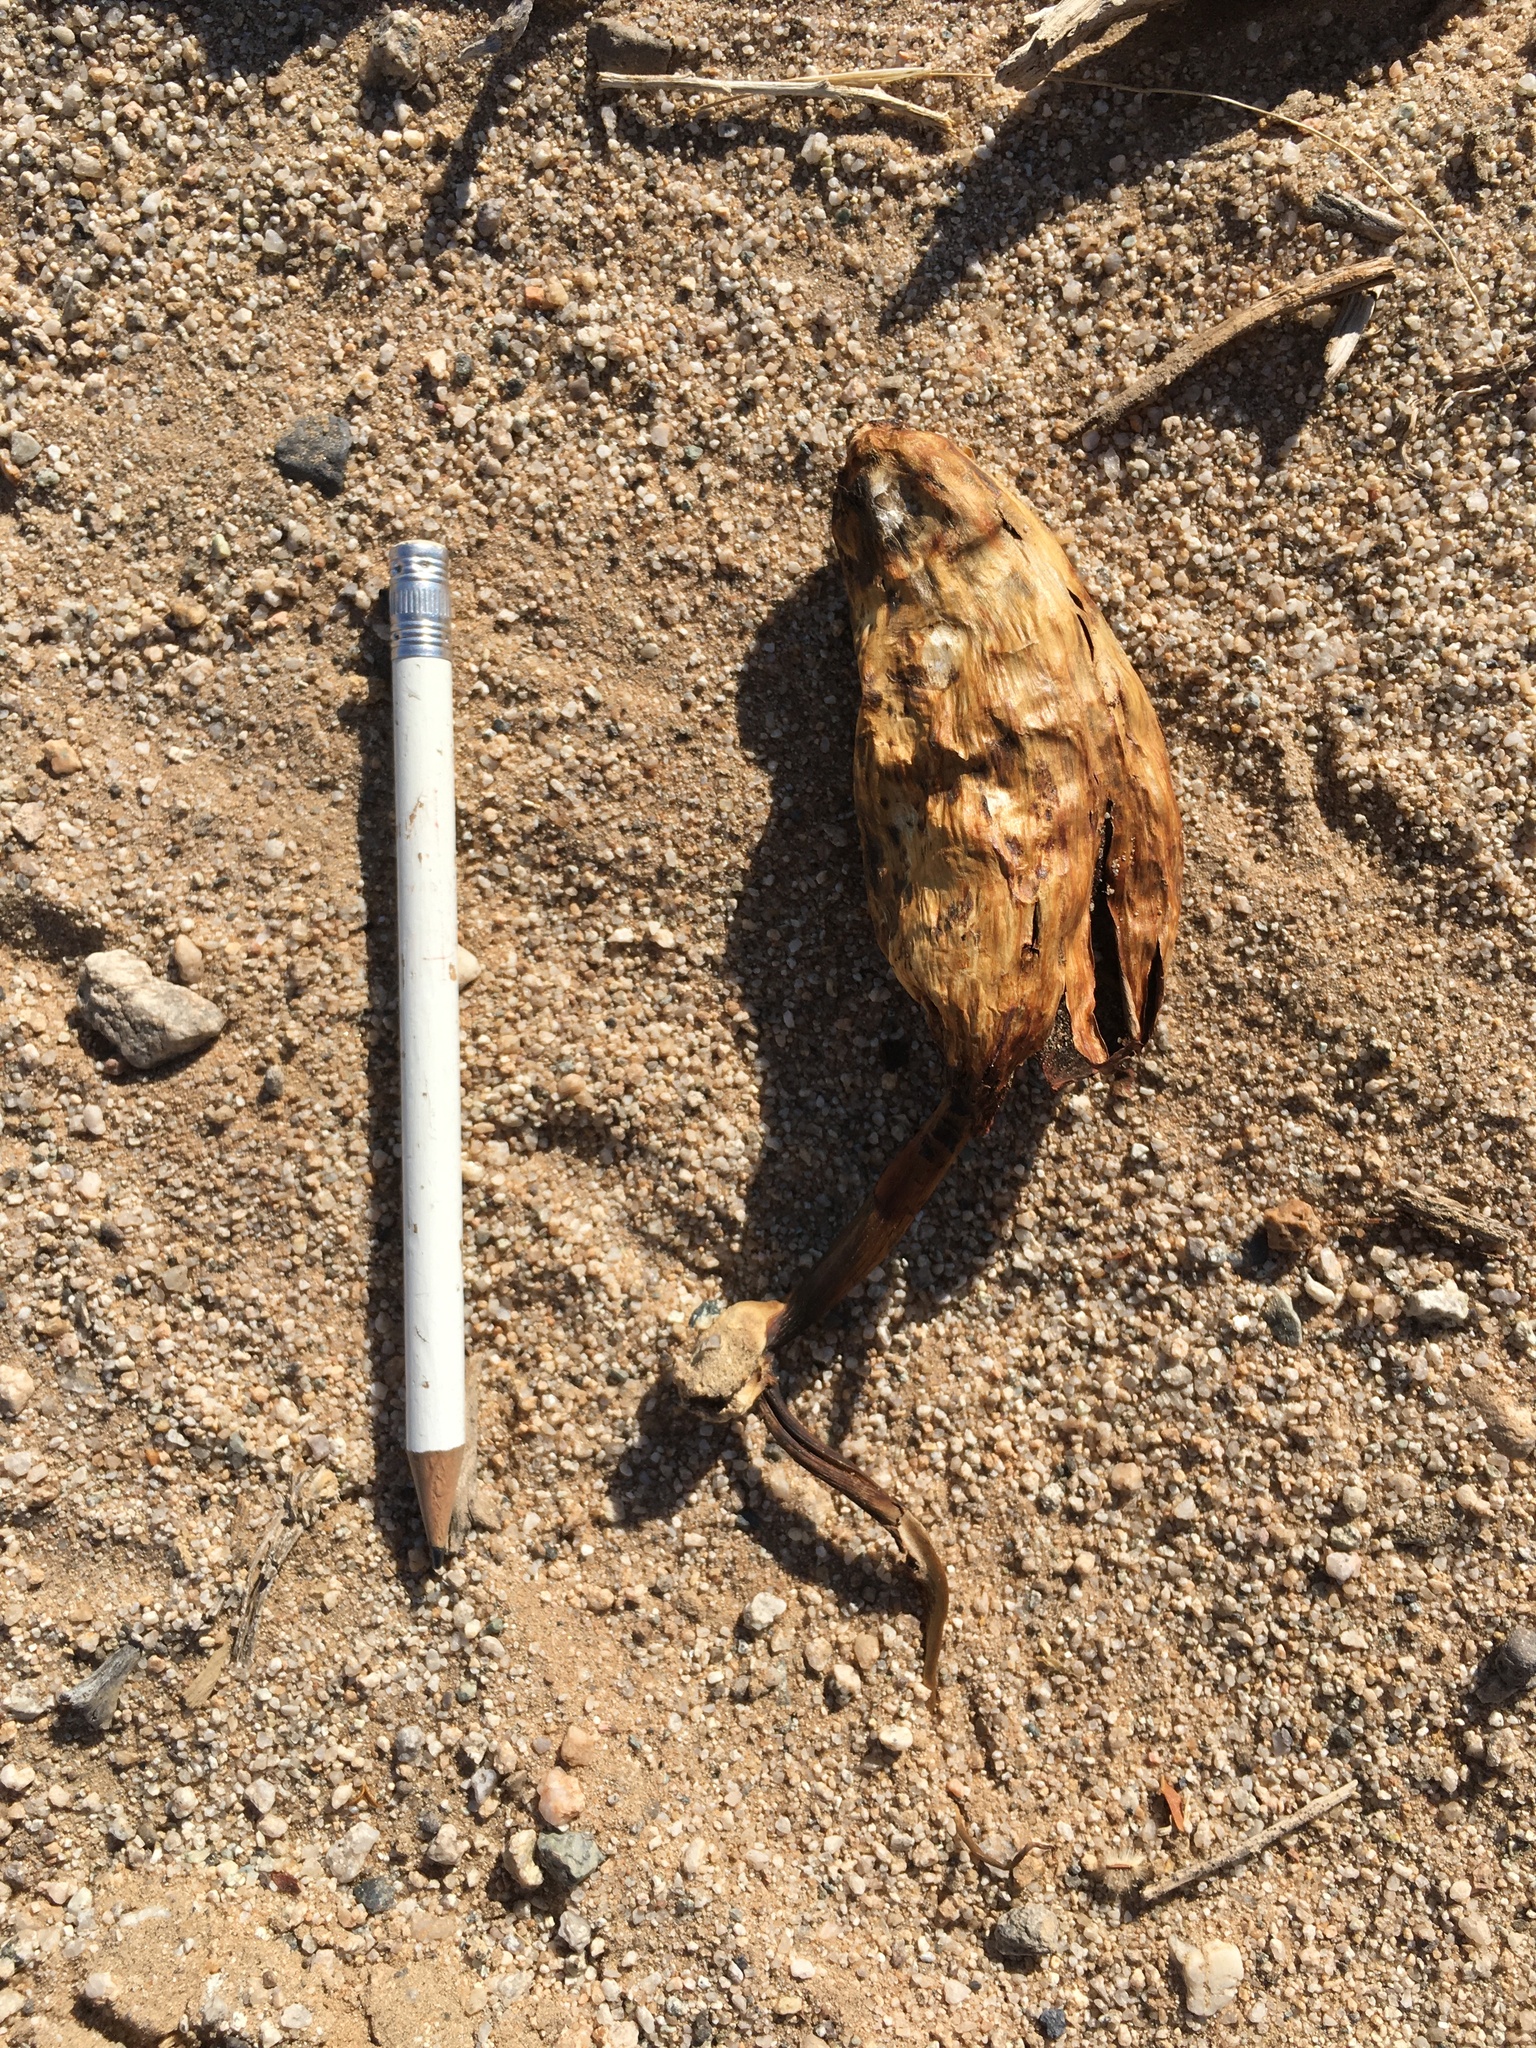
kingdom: Fungi
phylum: Basidiomycota
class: Agaricomycetes
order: Agaricales
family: Agaricaceae
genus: Podaxis
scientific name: Podaxis pistillaris
